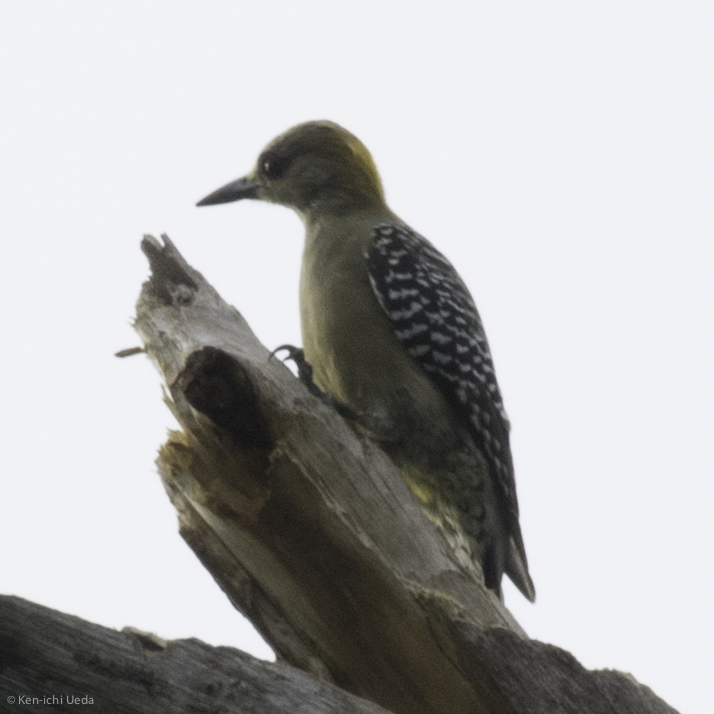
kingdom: Animalia
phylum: Chordata
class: Aves
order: Piciformes
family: Picidae
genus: Melanerpes
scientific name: Melanerpes hoffmannii
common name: Hoffmann's woodpecker
